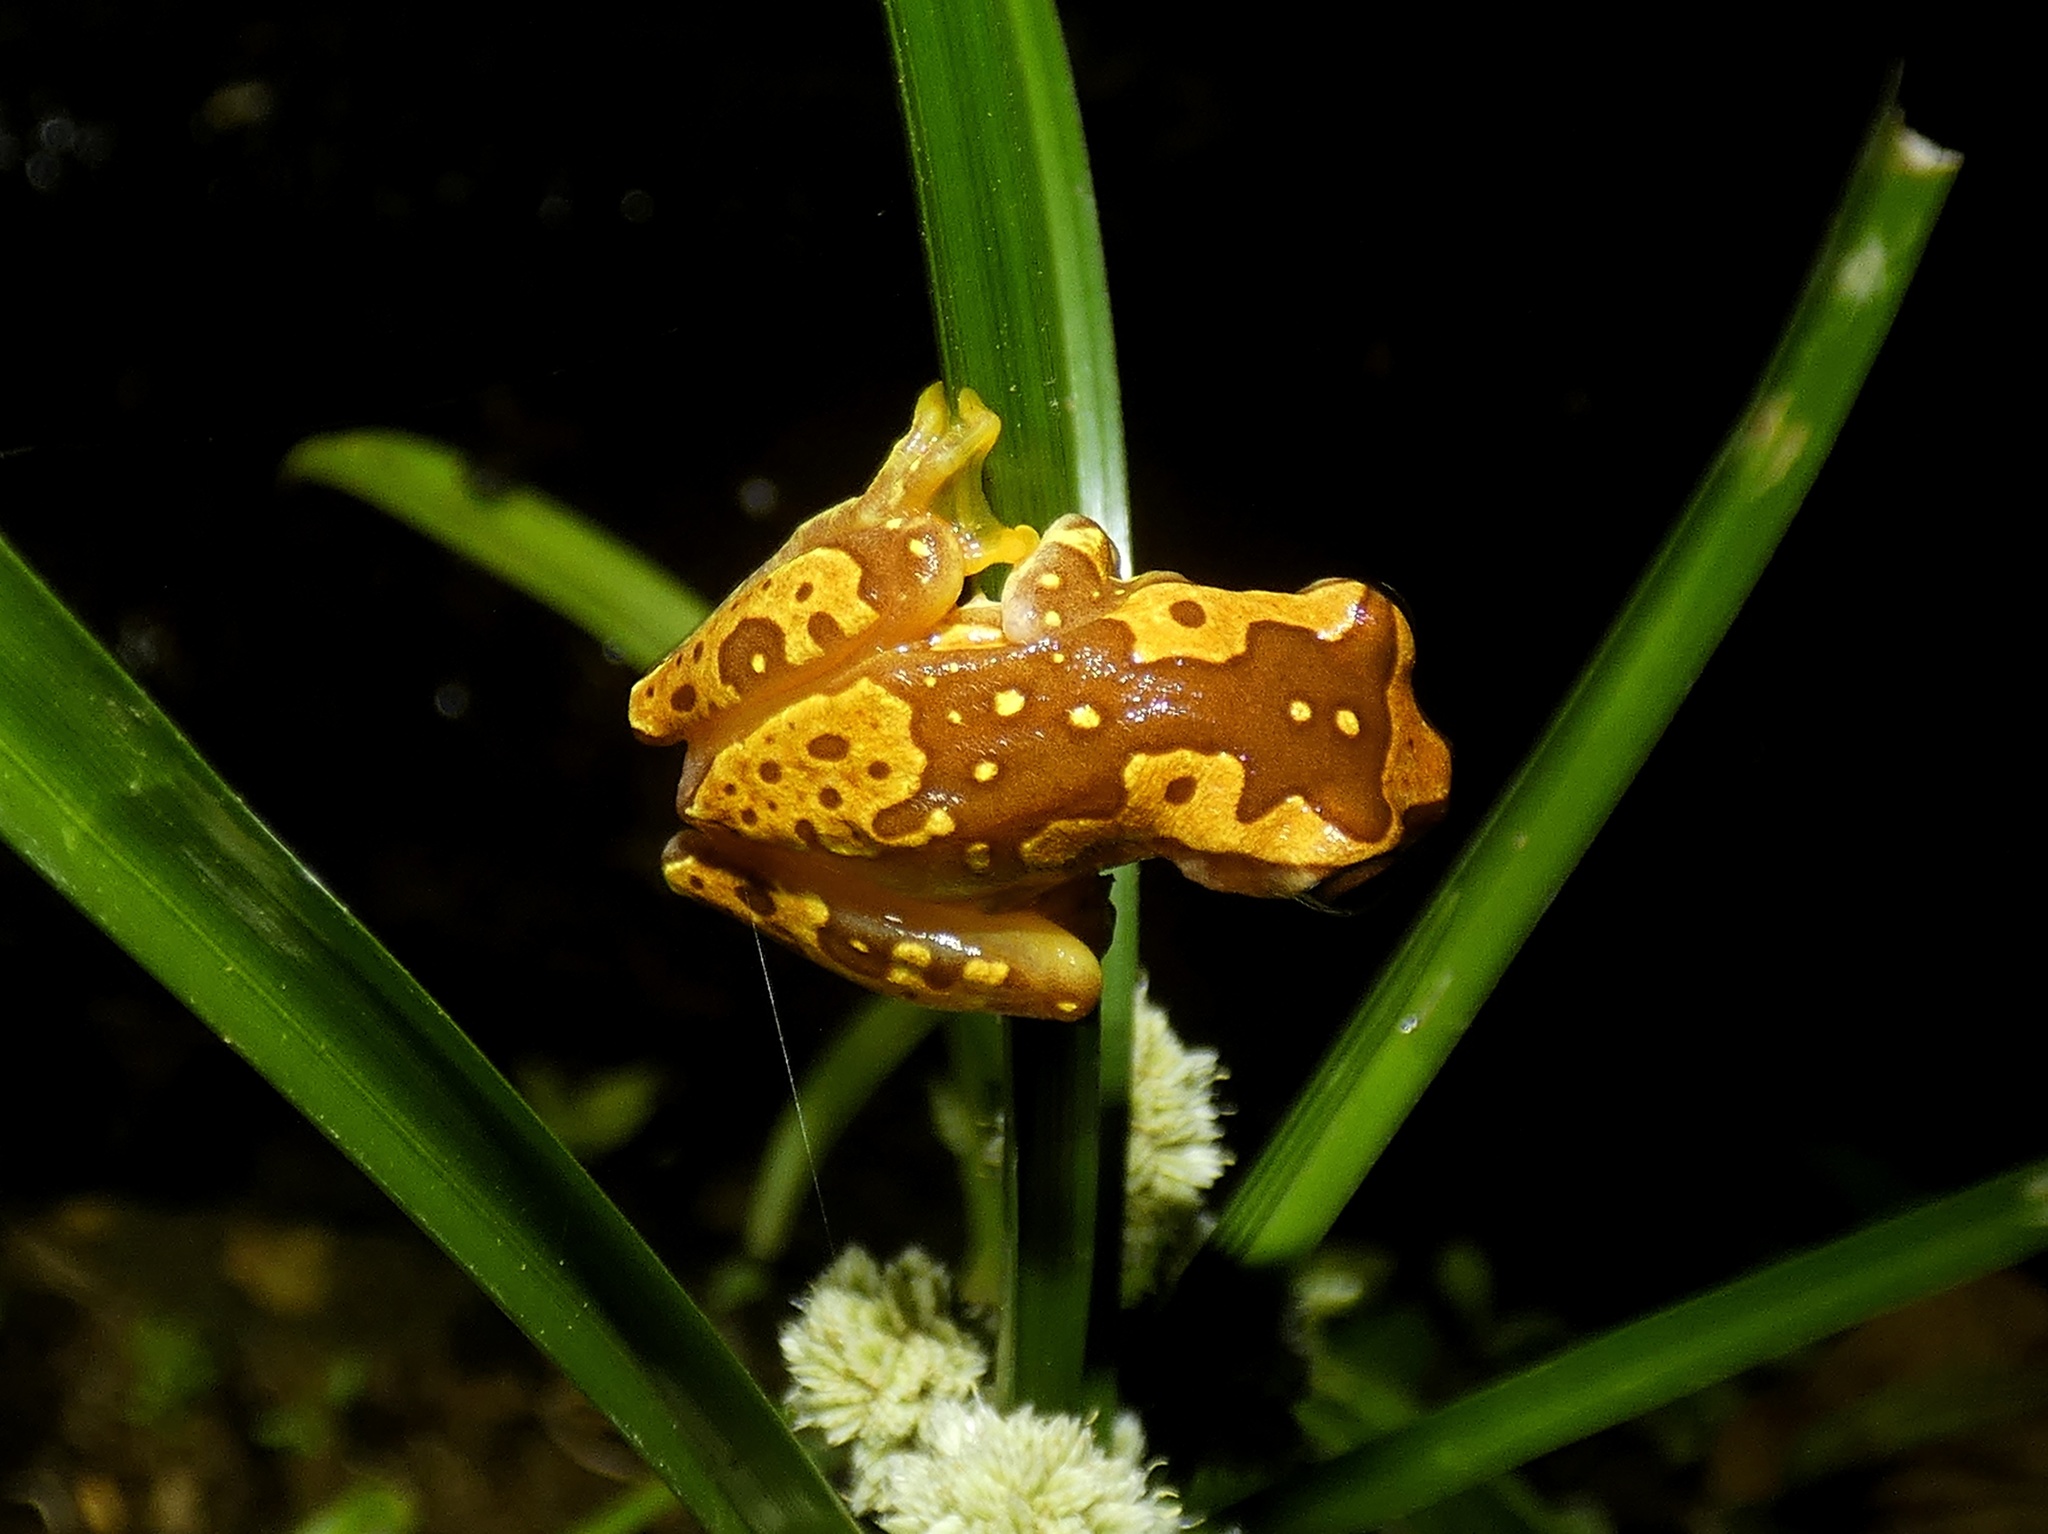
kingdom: Animalia
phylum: Chordata
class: Amphibia
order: Anura
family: Hylidae
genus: Dendropsophus
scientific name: Dendropsophus ebraccatus
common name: Hourglass treefrog
